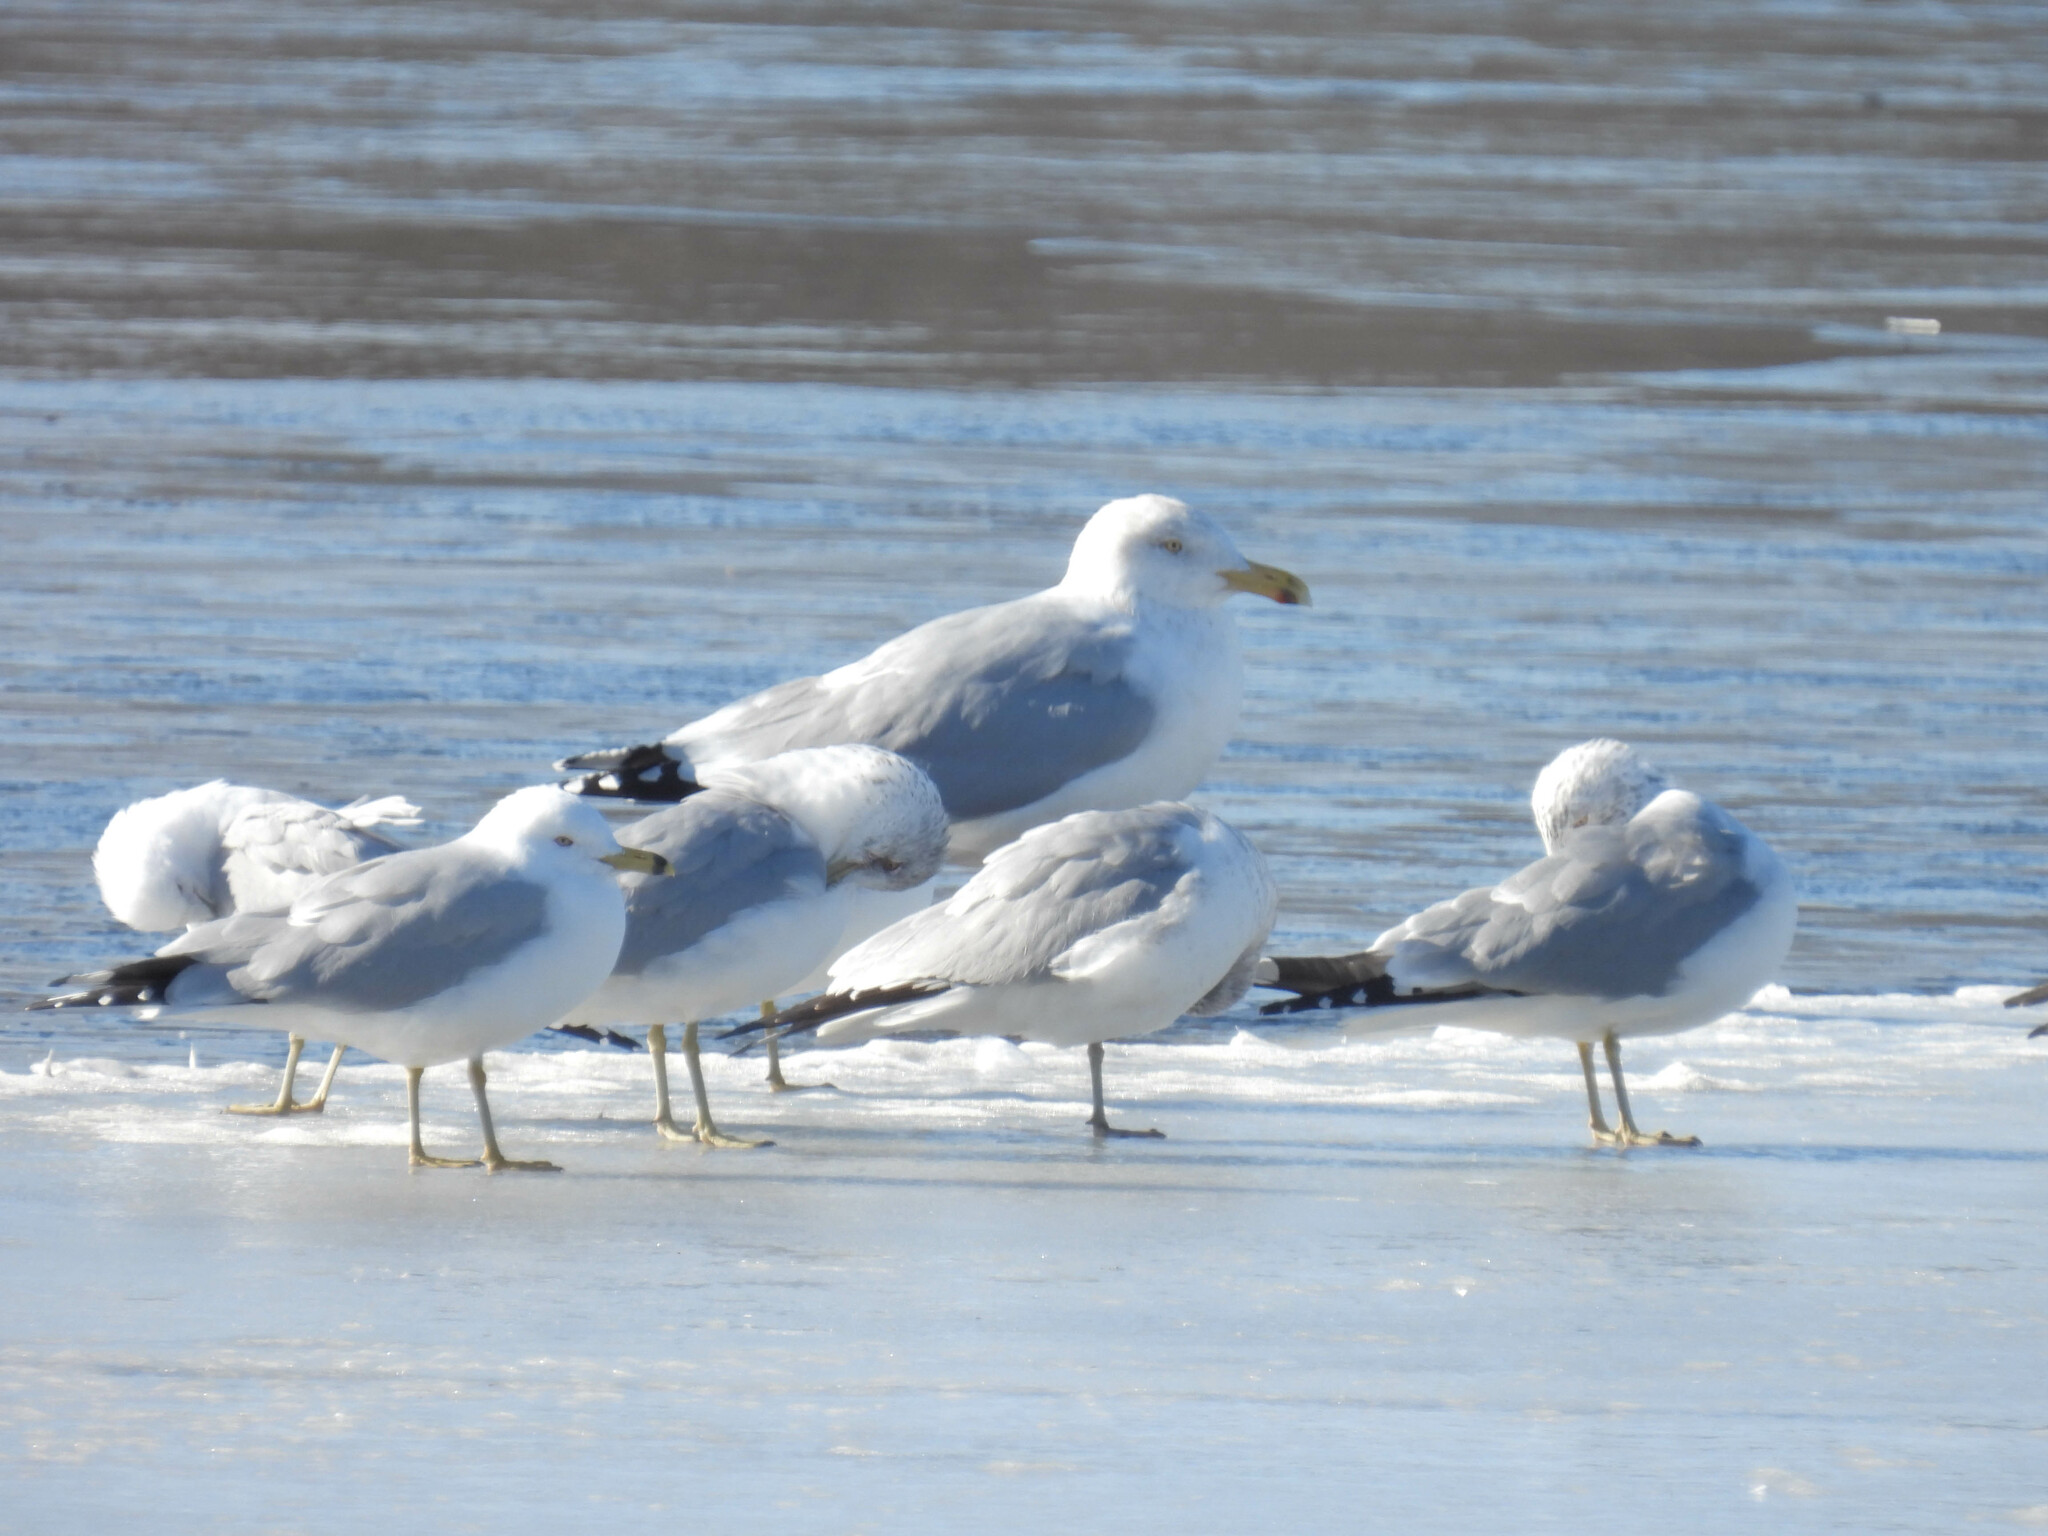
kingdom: Animalia
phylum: Chordata
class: Aves
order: Charadriiformes
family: Laridae
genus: Larus
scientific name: Larus delawarensis
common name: Ring-billed gull
